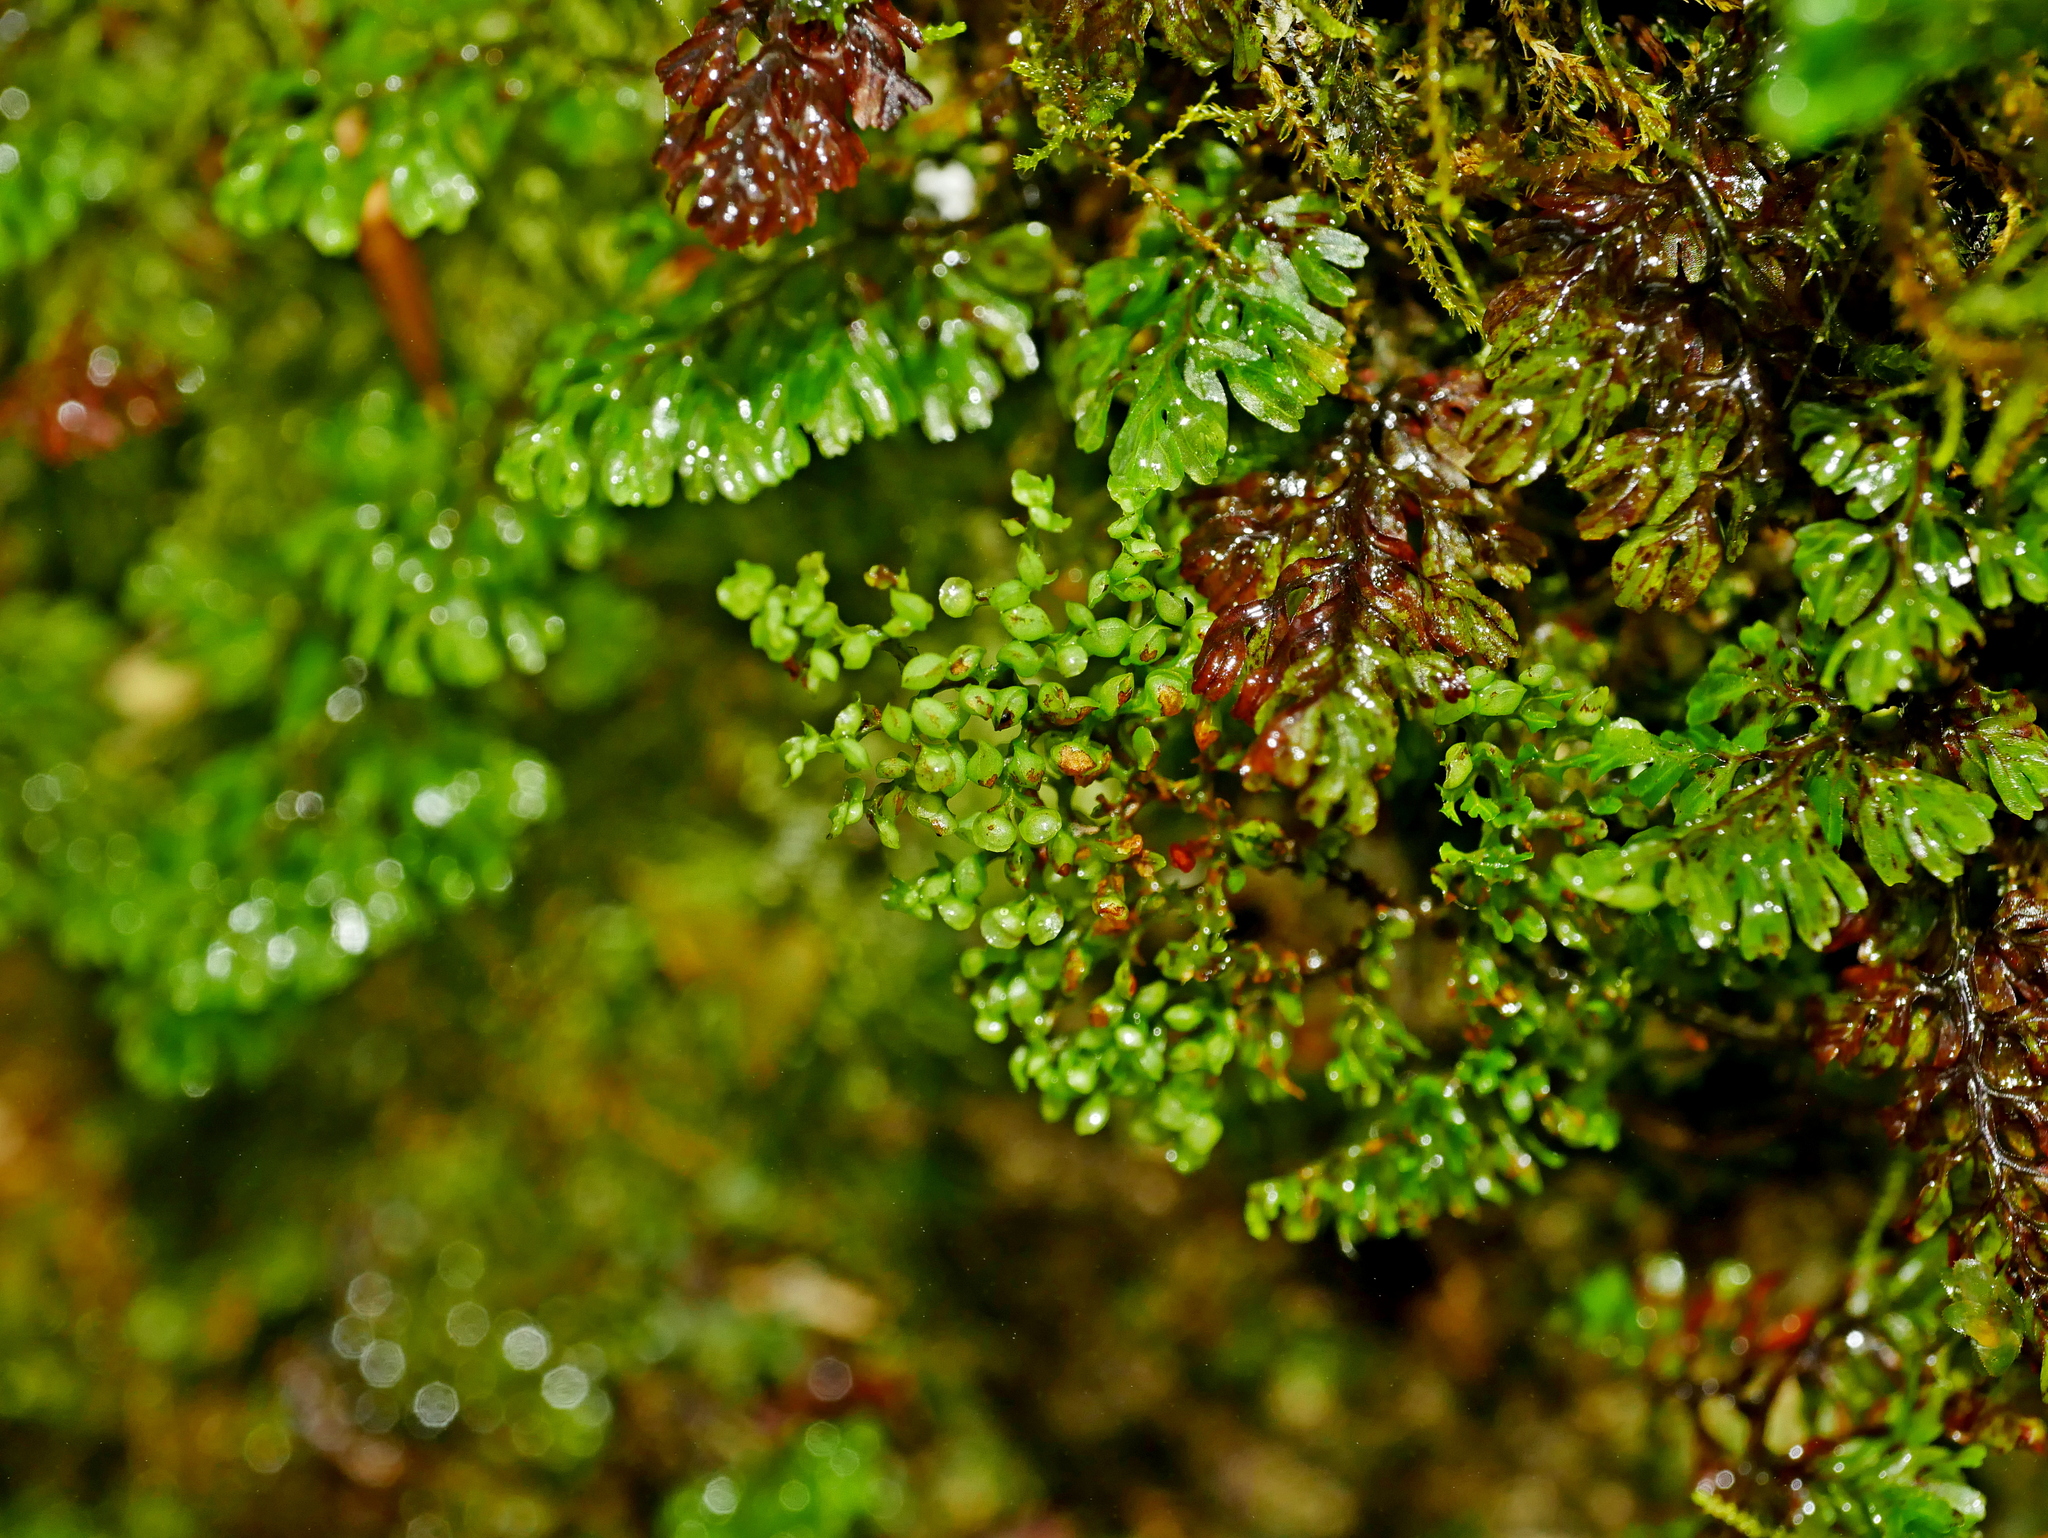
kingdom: Plantae
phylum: Tracheophyta
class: Polypodiopsida
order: Hymenophyllales
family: Hymenophyllaceae
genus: Hymenophyllum
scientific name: Hymenophyllum exquisitum
